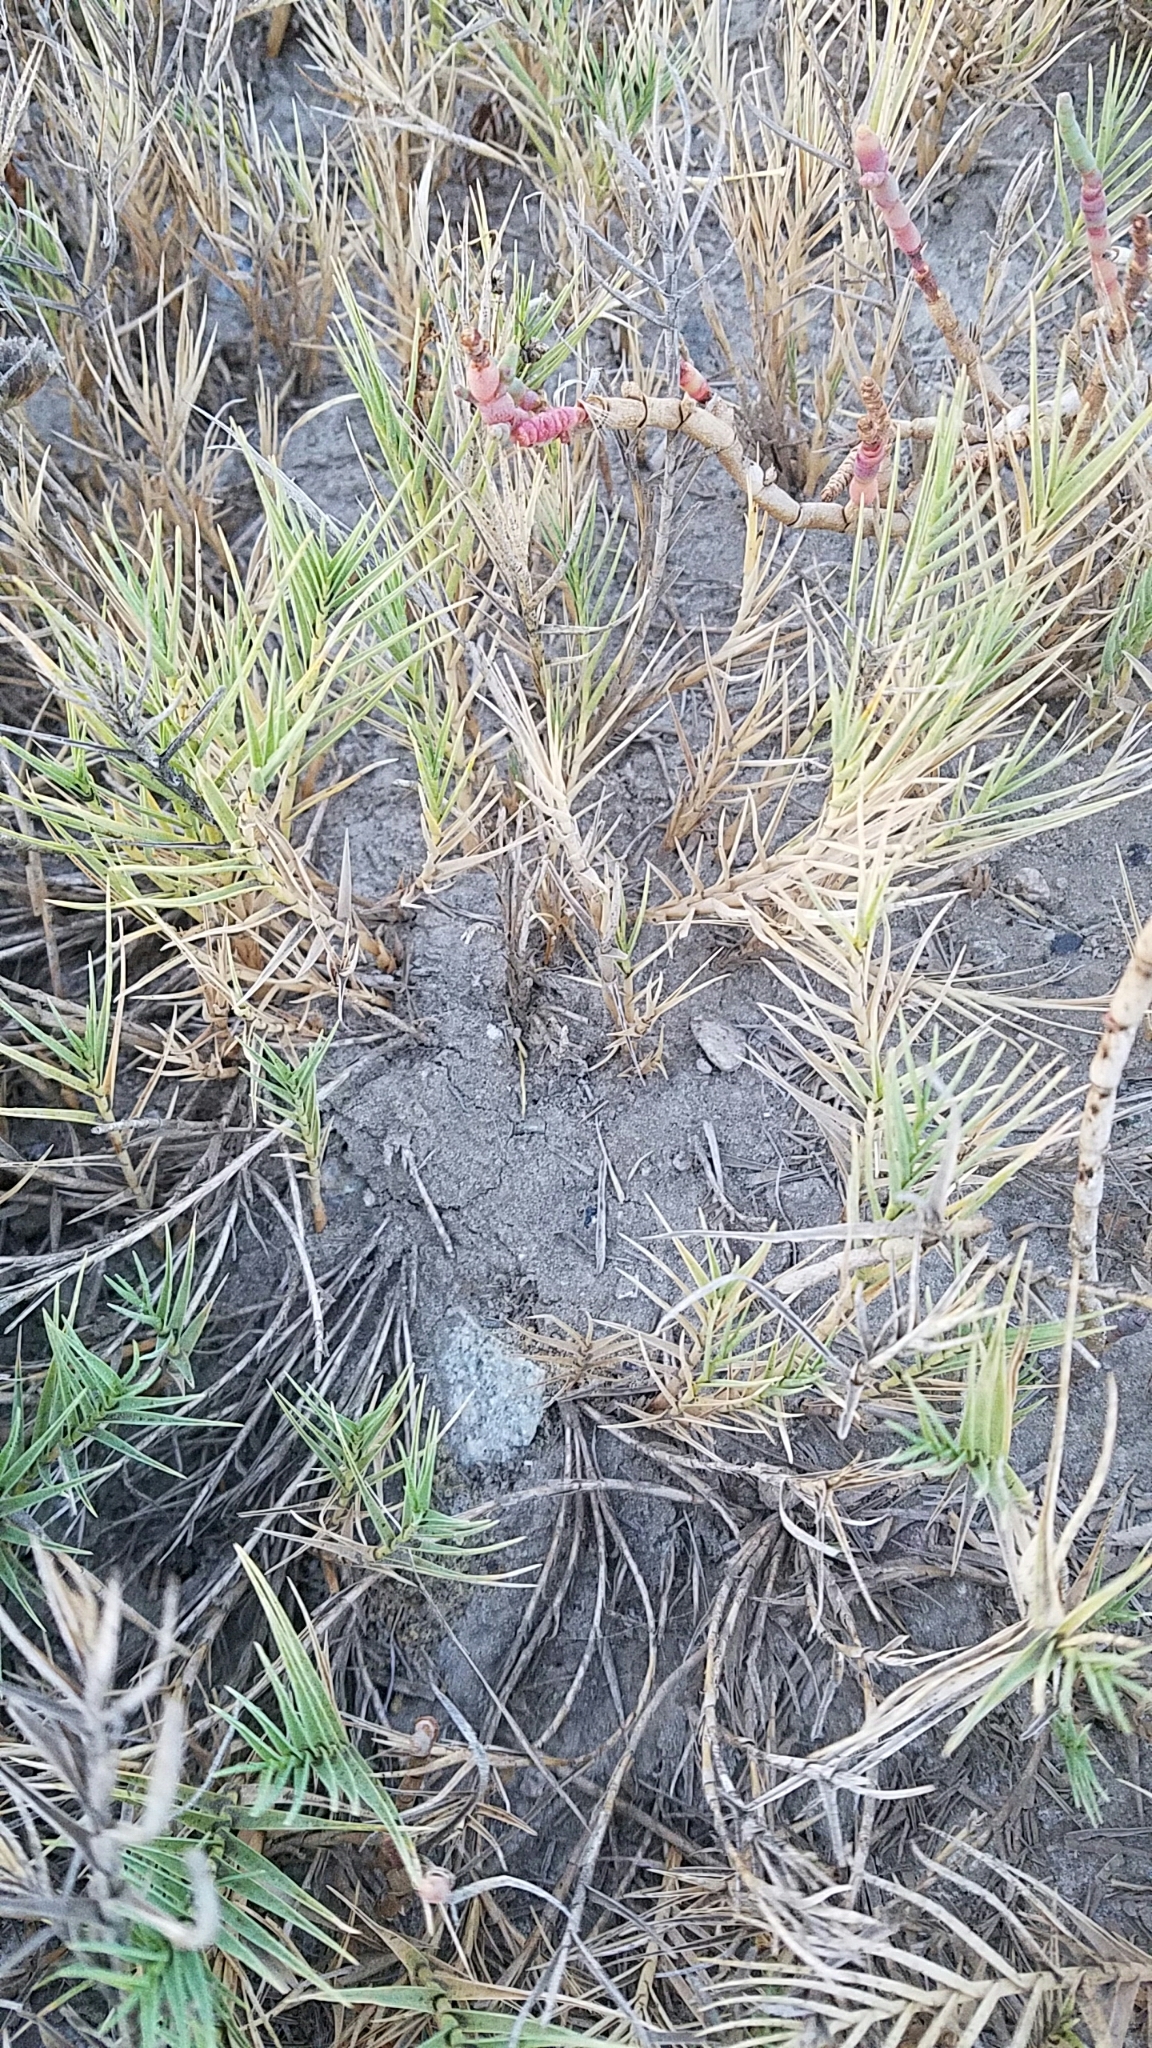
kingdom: Plantae
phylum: Tracheophyta
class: Liliopsida
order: Poales
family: Poaceae
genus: Distichlis
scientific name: Distichlis spicata
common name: Saltgrass
